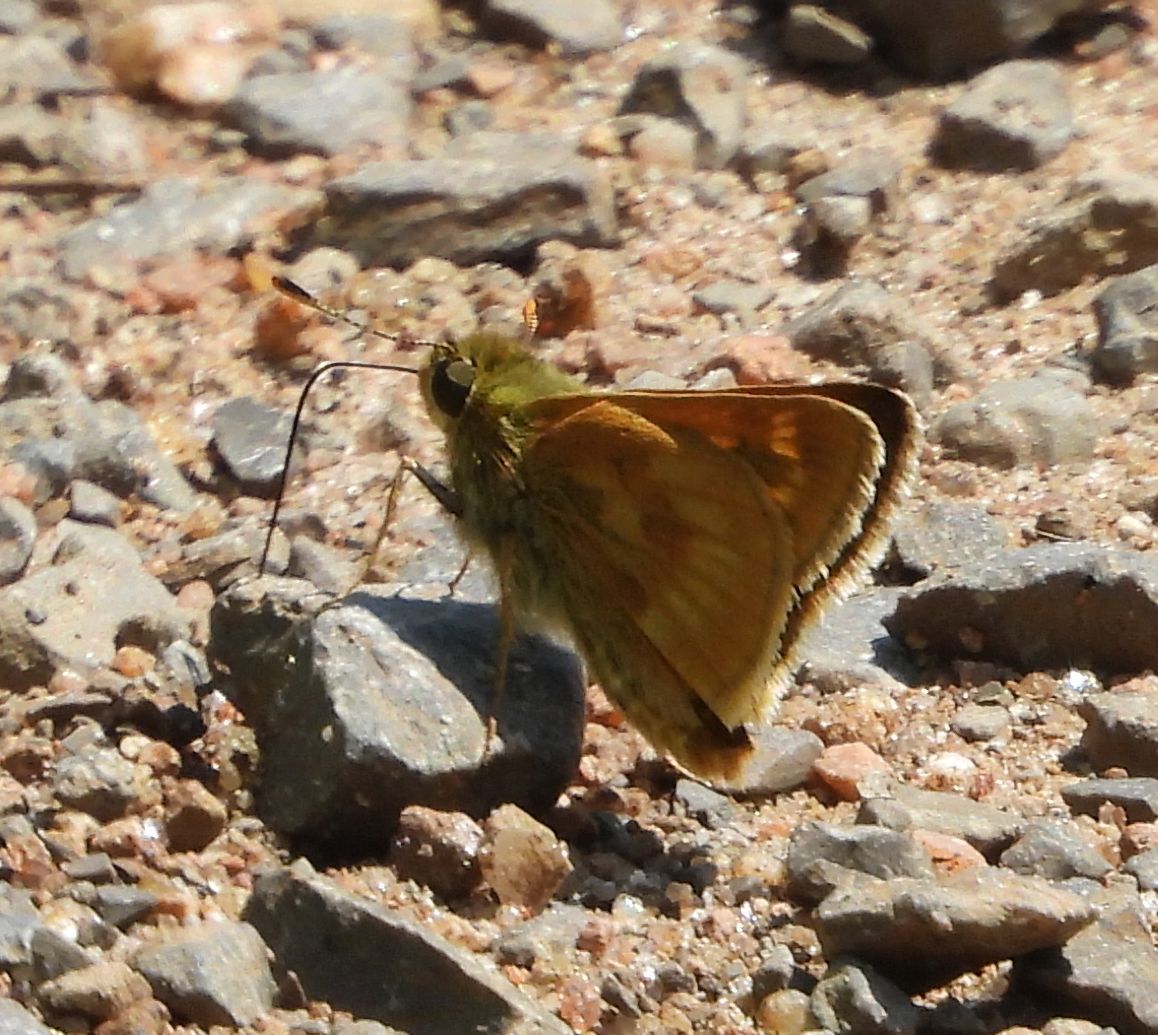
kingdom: Animalia
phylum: Arthropoda
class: Insecta
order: Lepidoptera
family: Hesperiidae
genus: Polites
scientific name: Polites mystic
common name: Long dash
